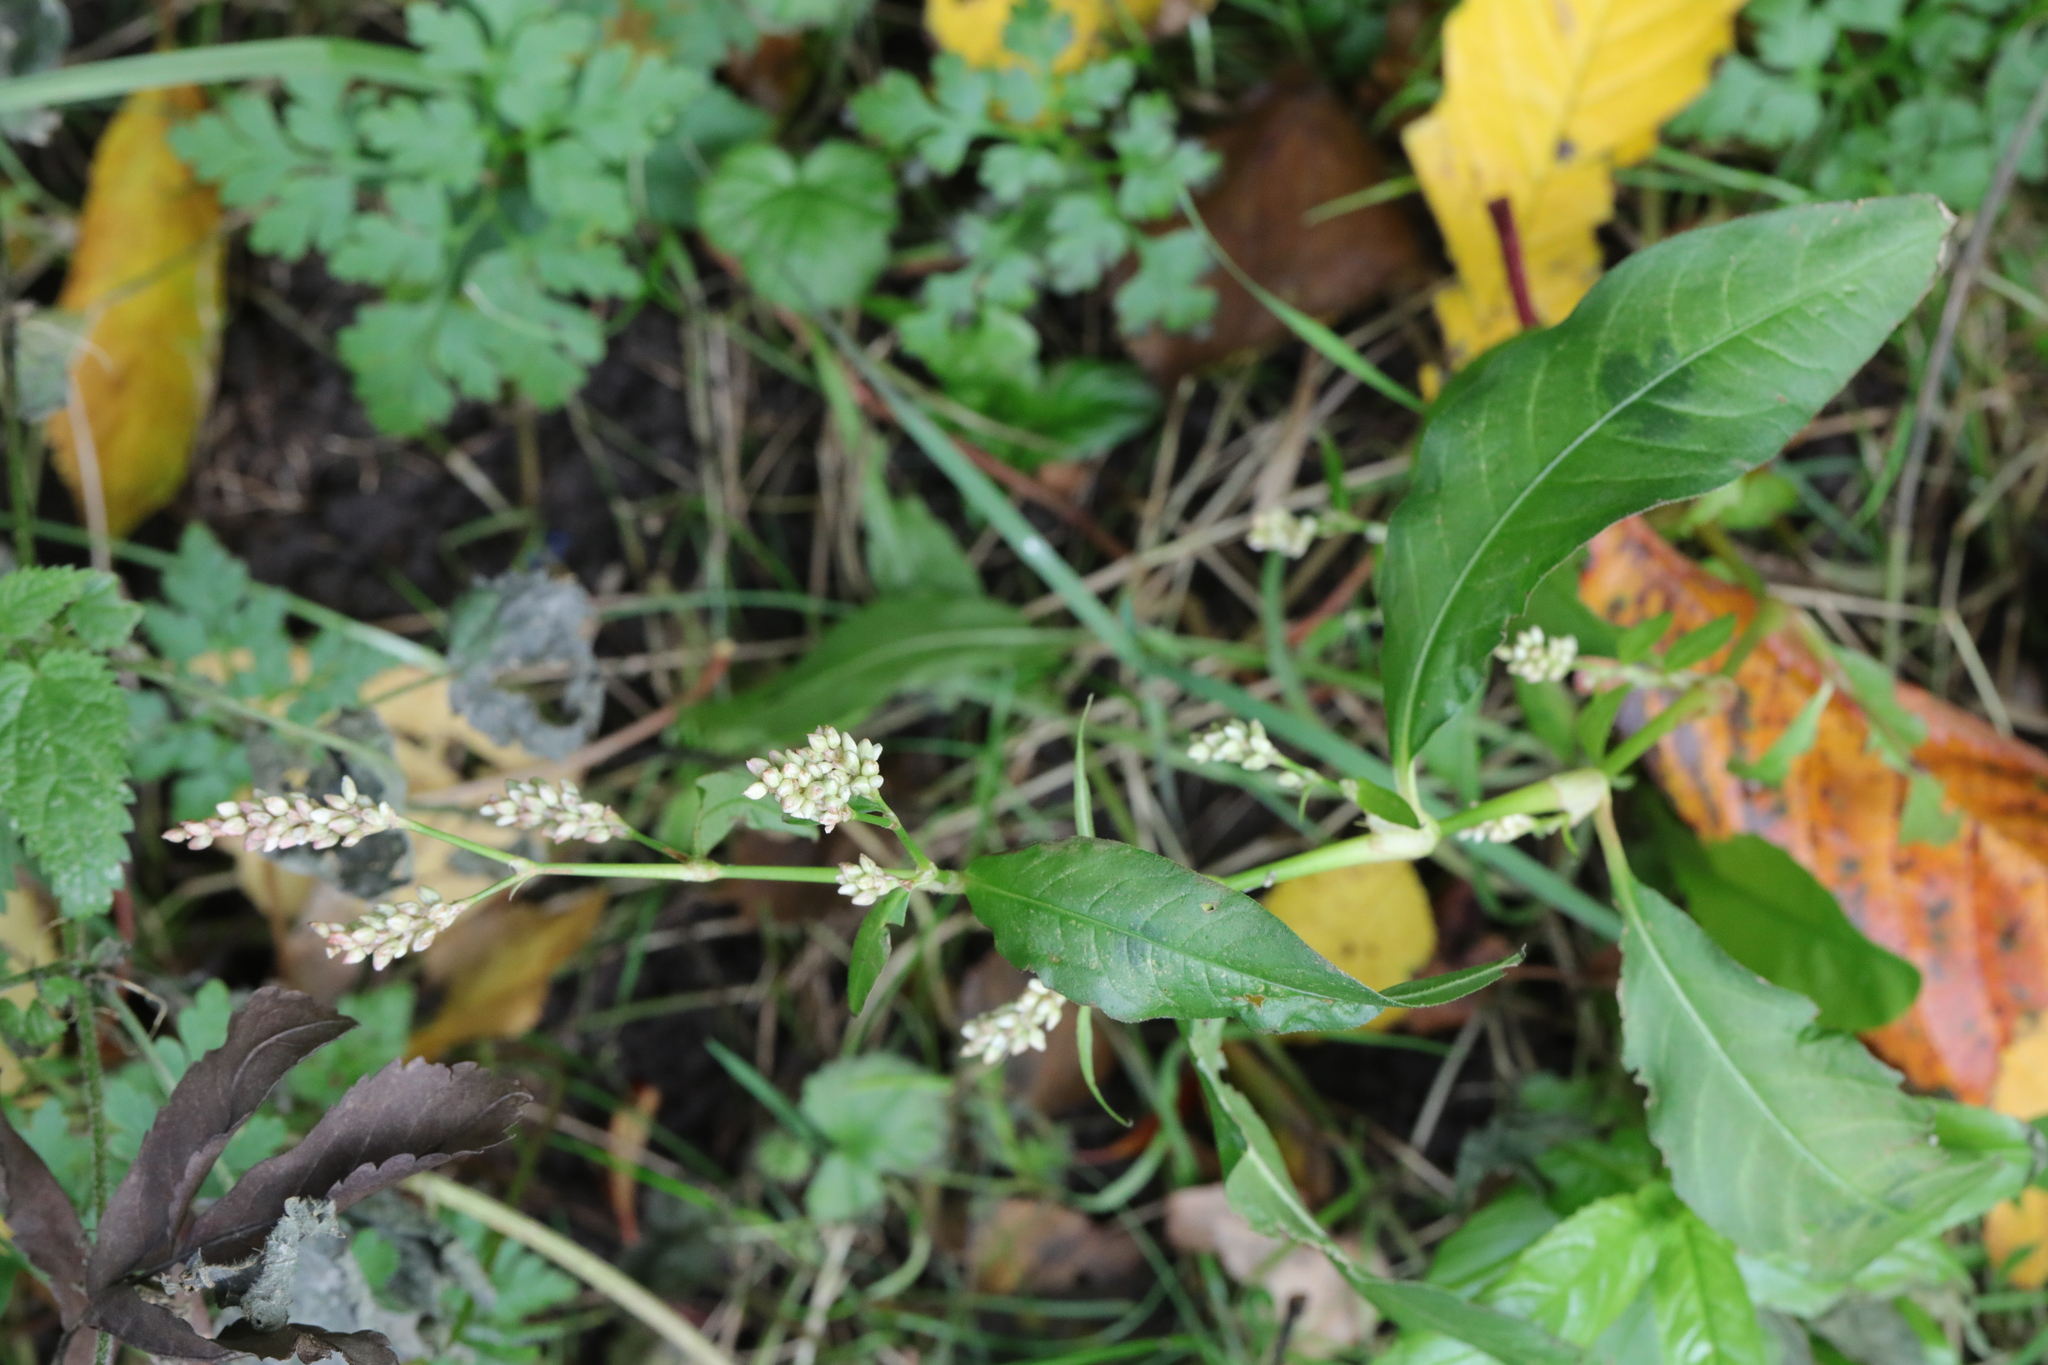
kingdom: Plantae
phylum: Tracheophyta
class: Magnoliopsida
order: Caryophyllales
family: Polygonaceae
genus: Persicaria
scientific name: Persicaria lapathifolia
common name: Curlytop knotweed
